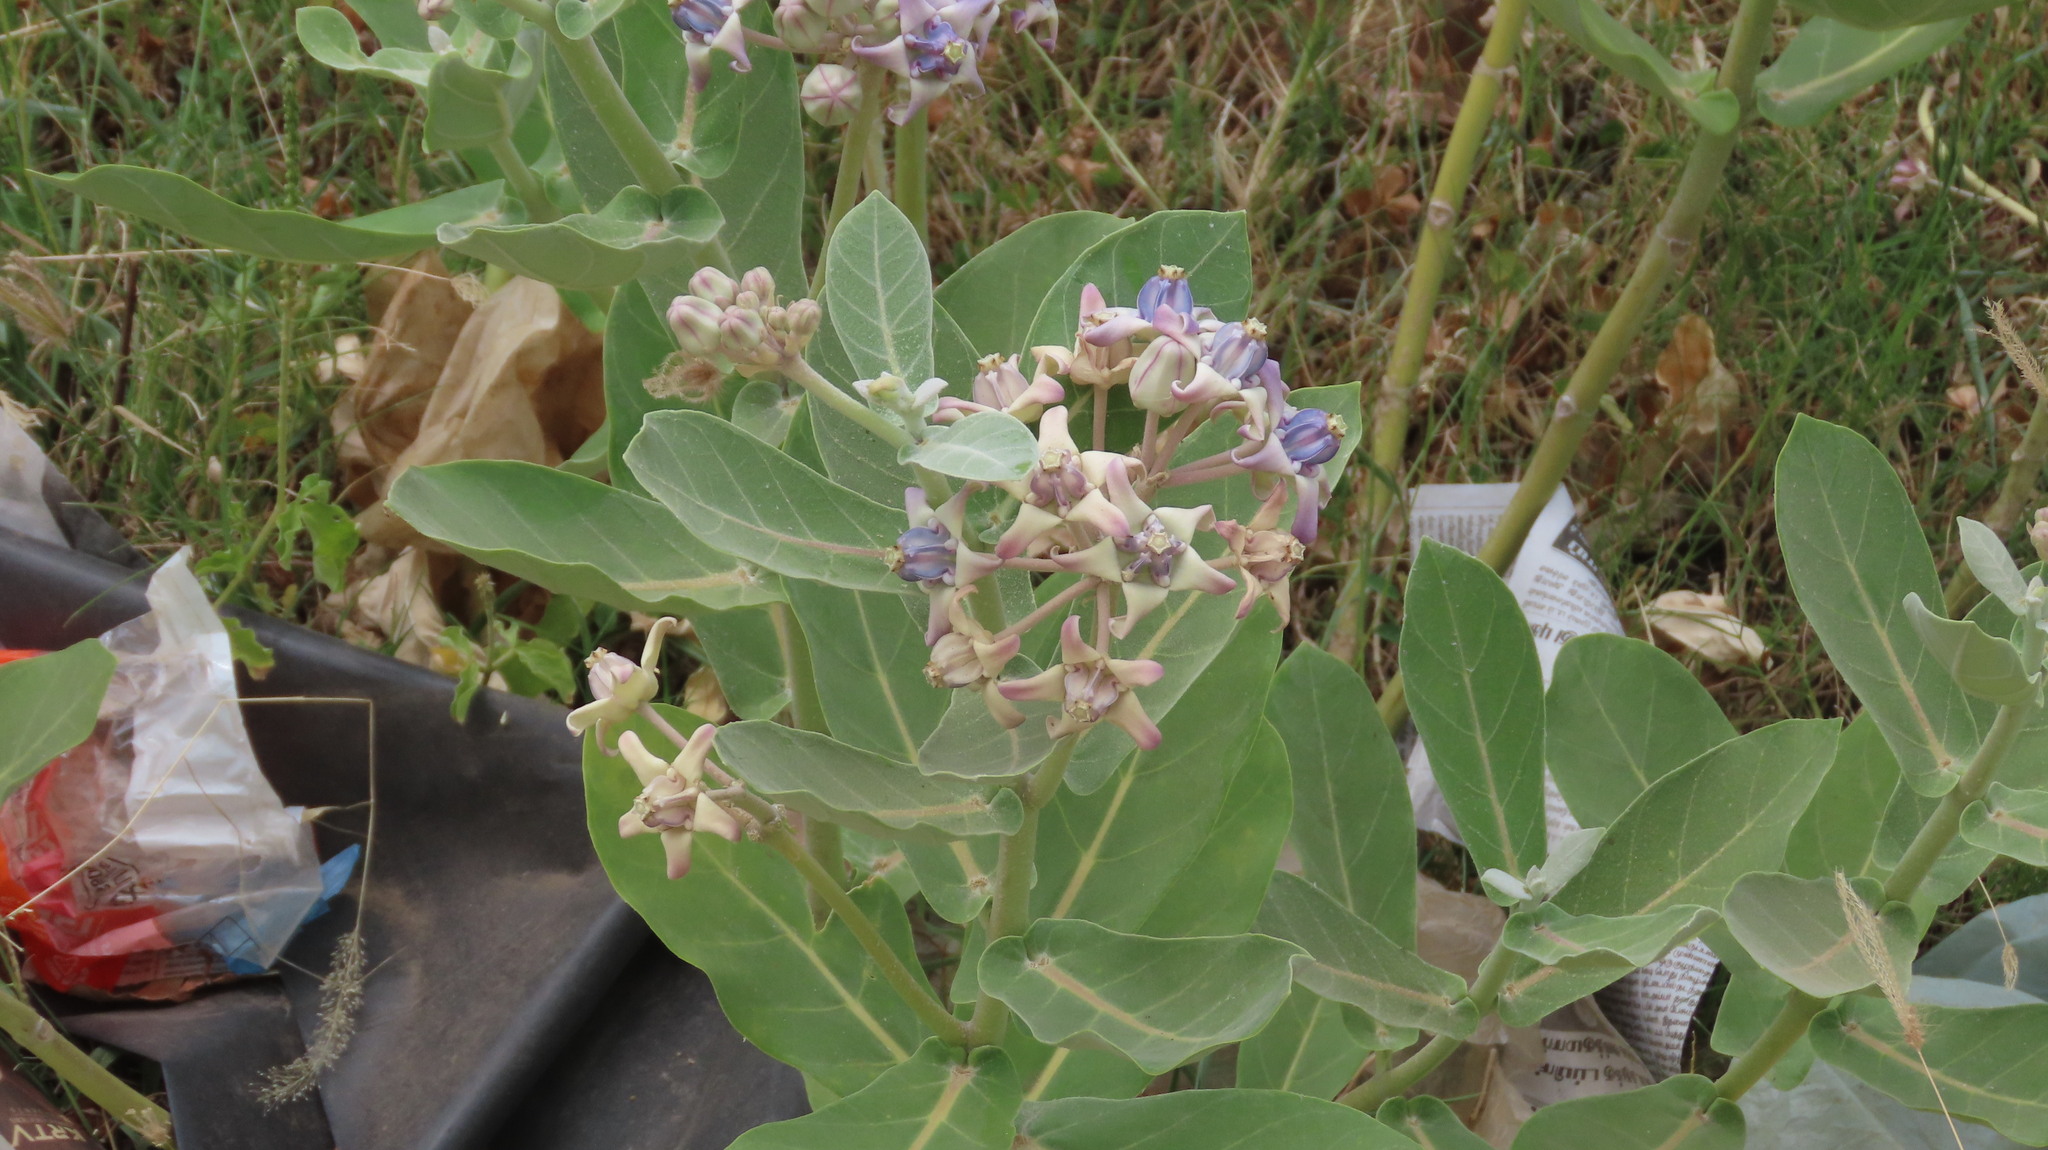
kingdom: Plantae
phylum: Tracheophyta
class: Magnoliopsida
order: Gentianales
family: Apocynaceae
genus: Calotropis
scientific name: Calotropis gigantea
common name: Crown flower
